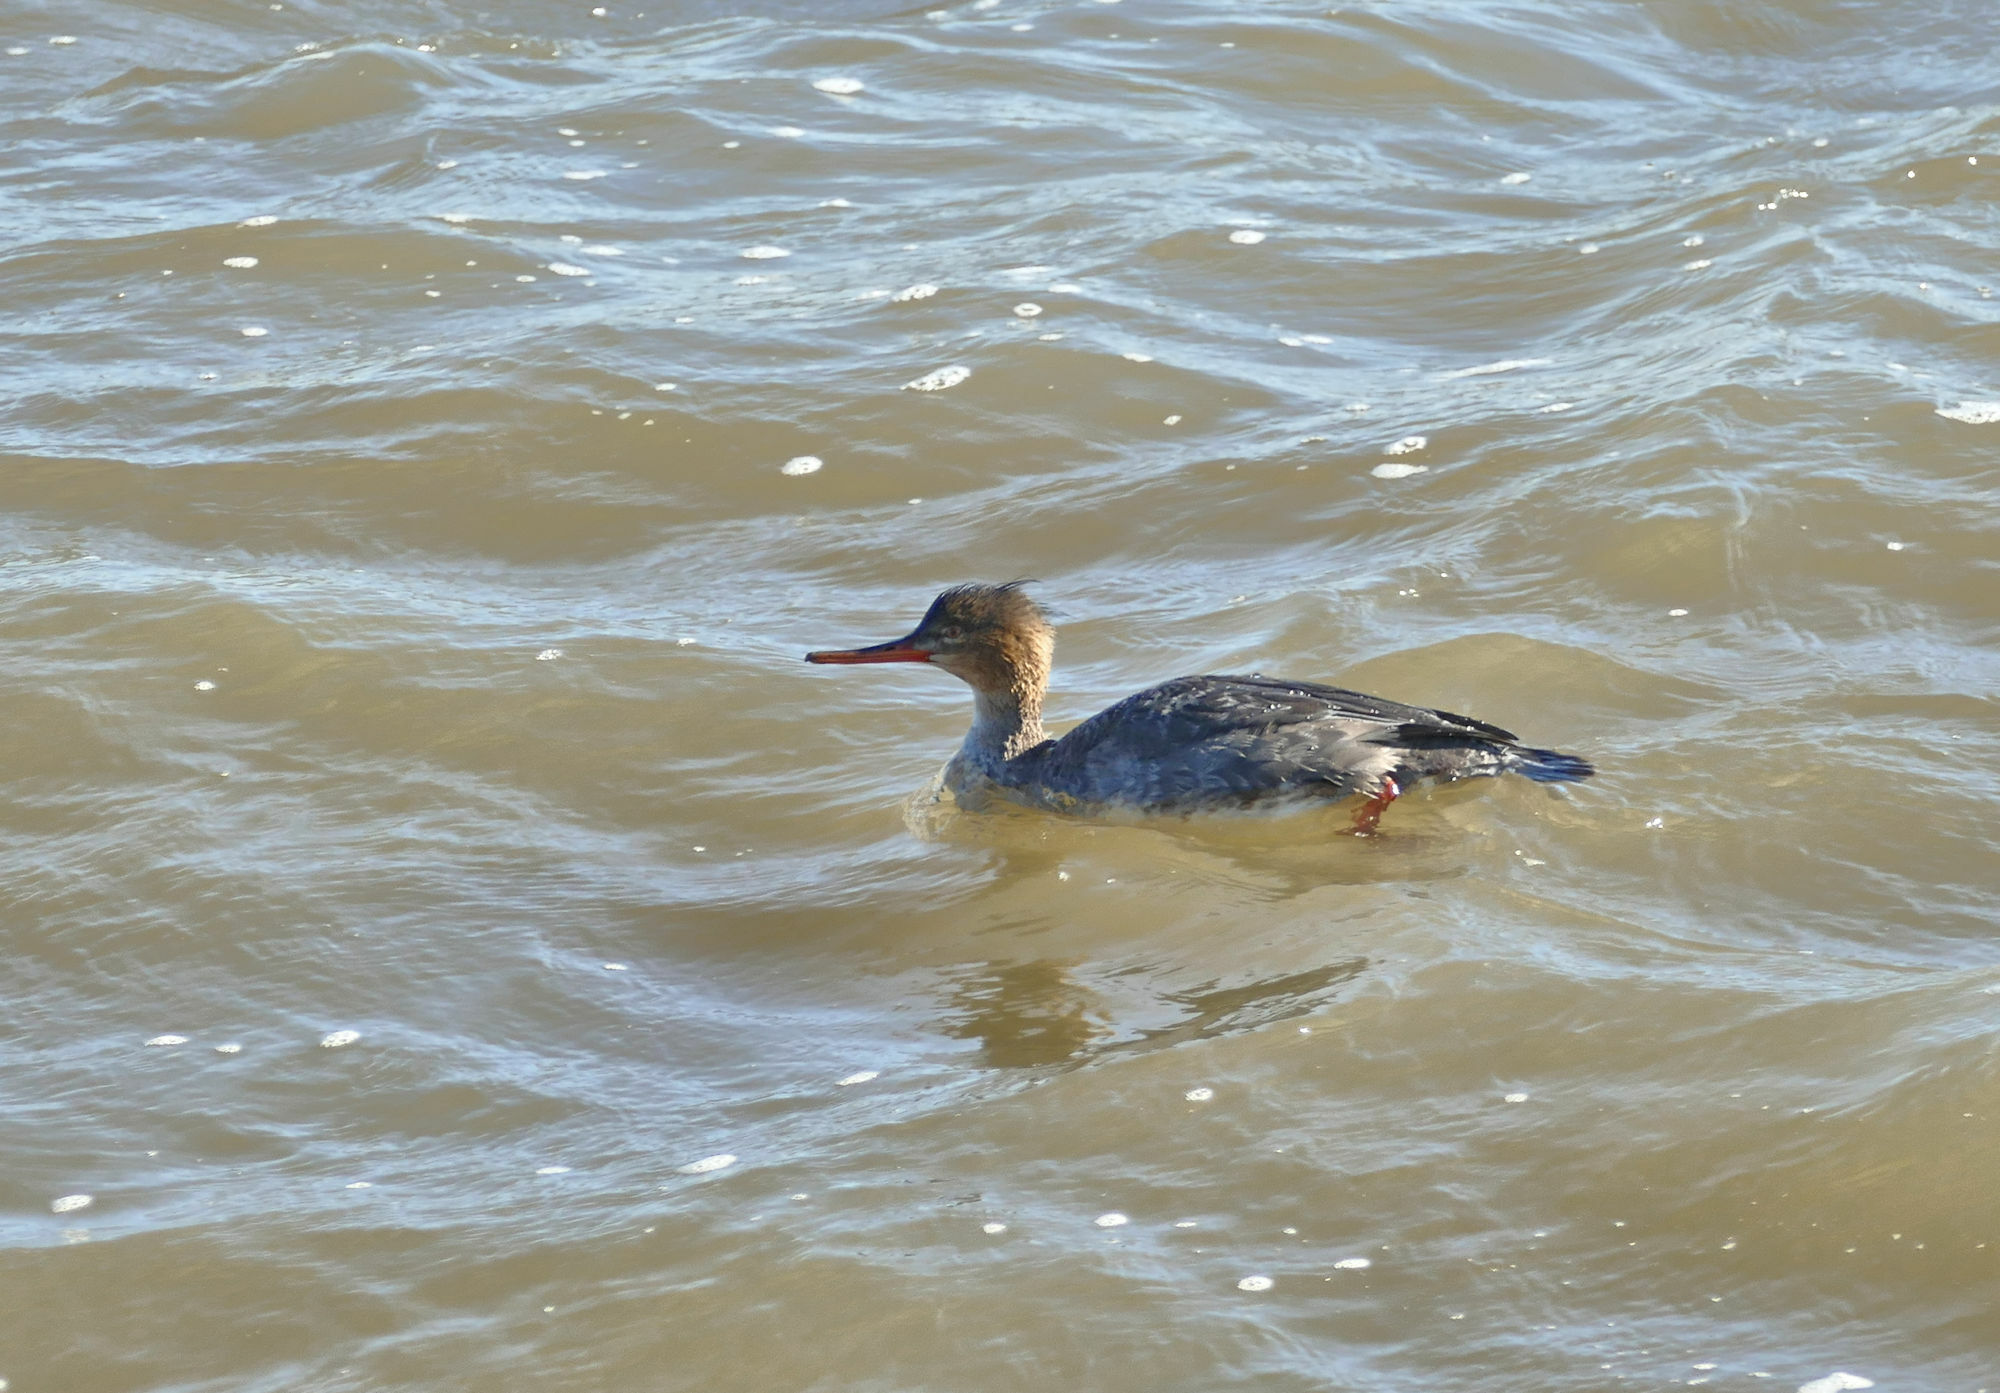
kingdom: Animalia
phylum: Chordata
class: Aves
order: Anseriformes
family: Anatidae
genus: Mergus
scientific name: Mergus serrator
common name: Red-breasted merganser
